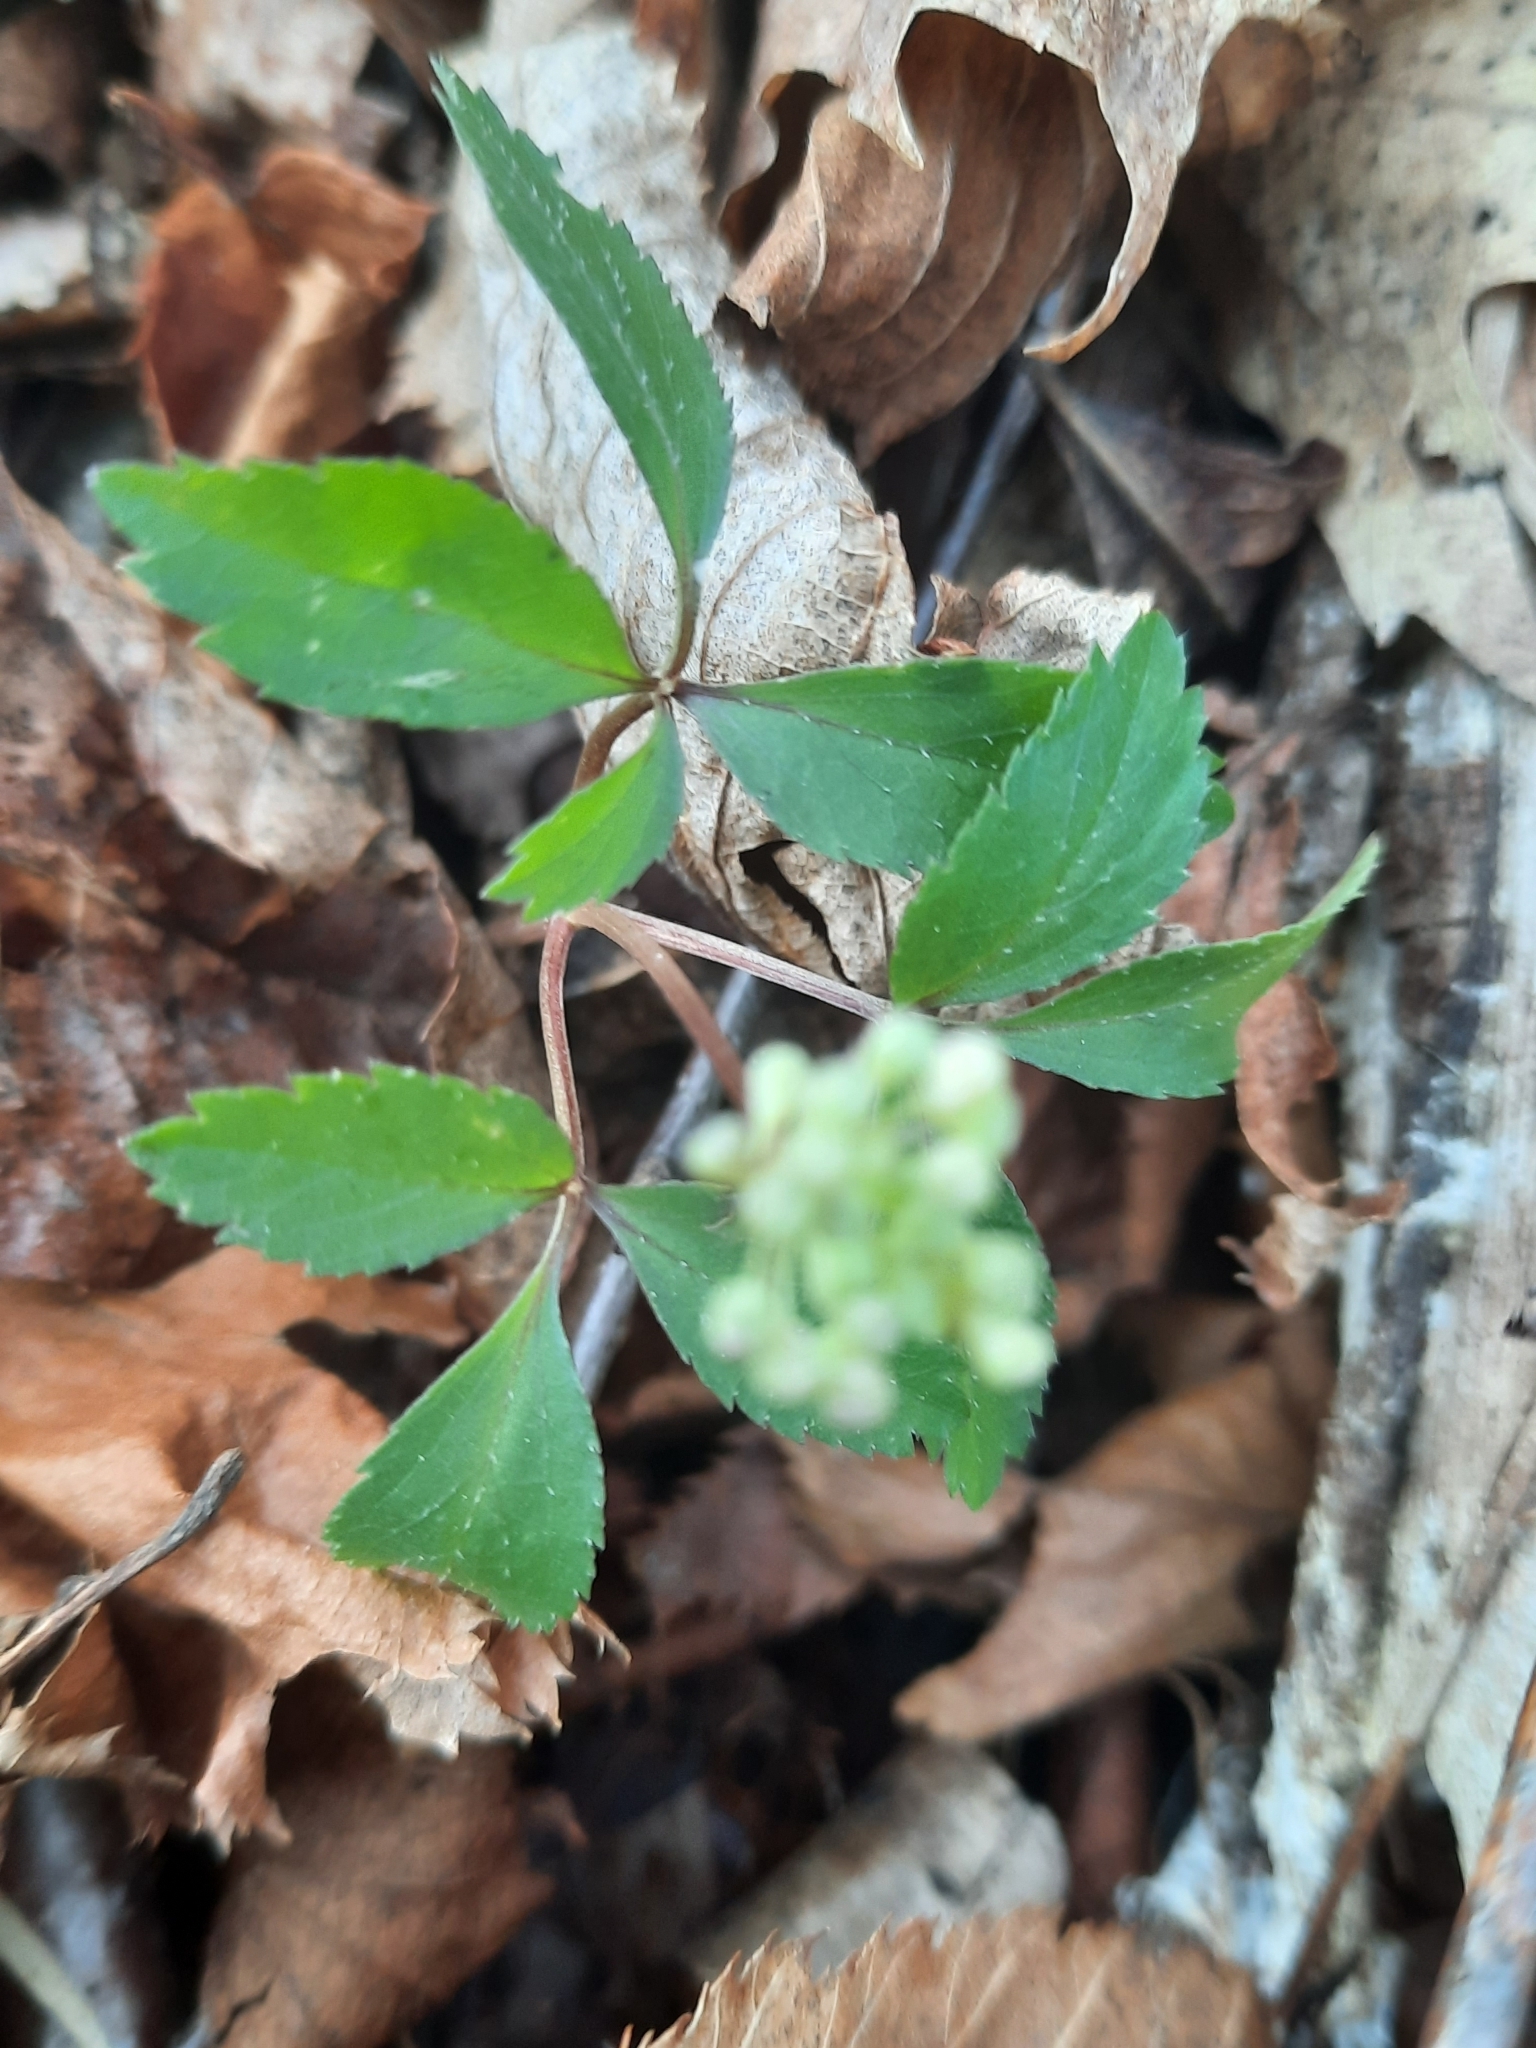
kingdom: Plantae
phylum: Tracheophyta
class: Magnoliopsida
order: Apiales
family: Araliaceae
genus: Panax
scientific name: Panax trifolius
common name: Dwarf ginseng
